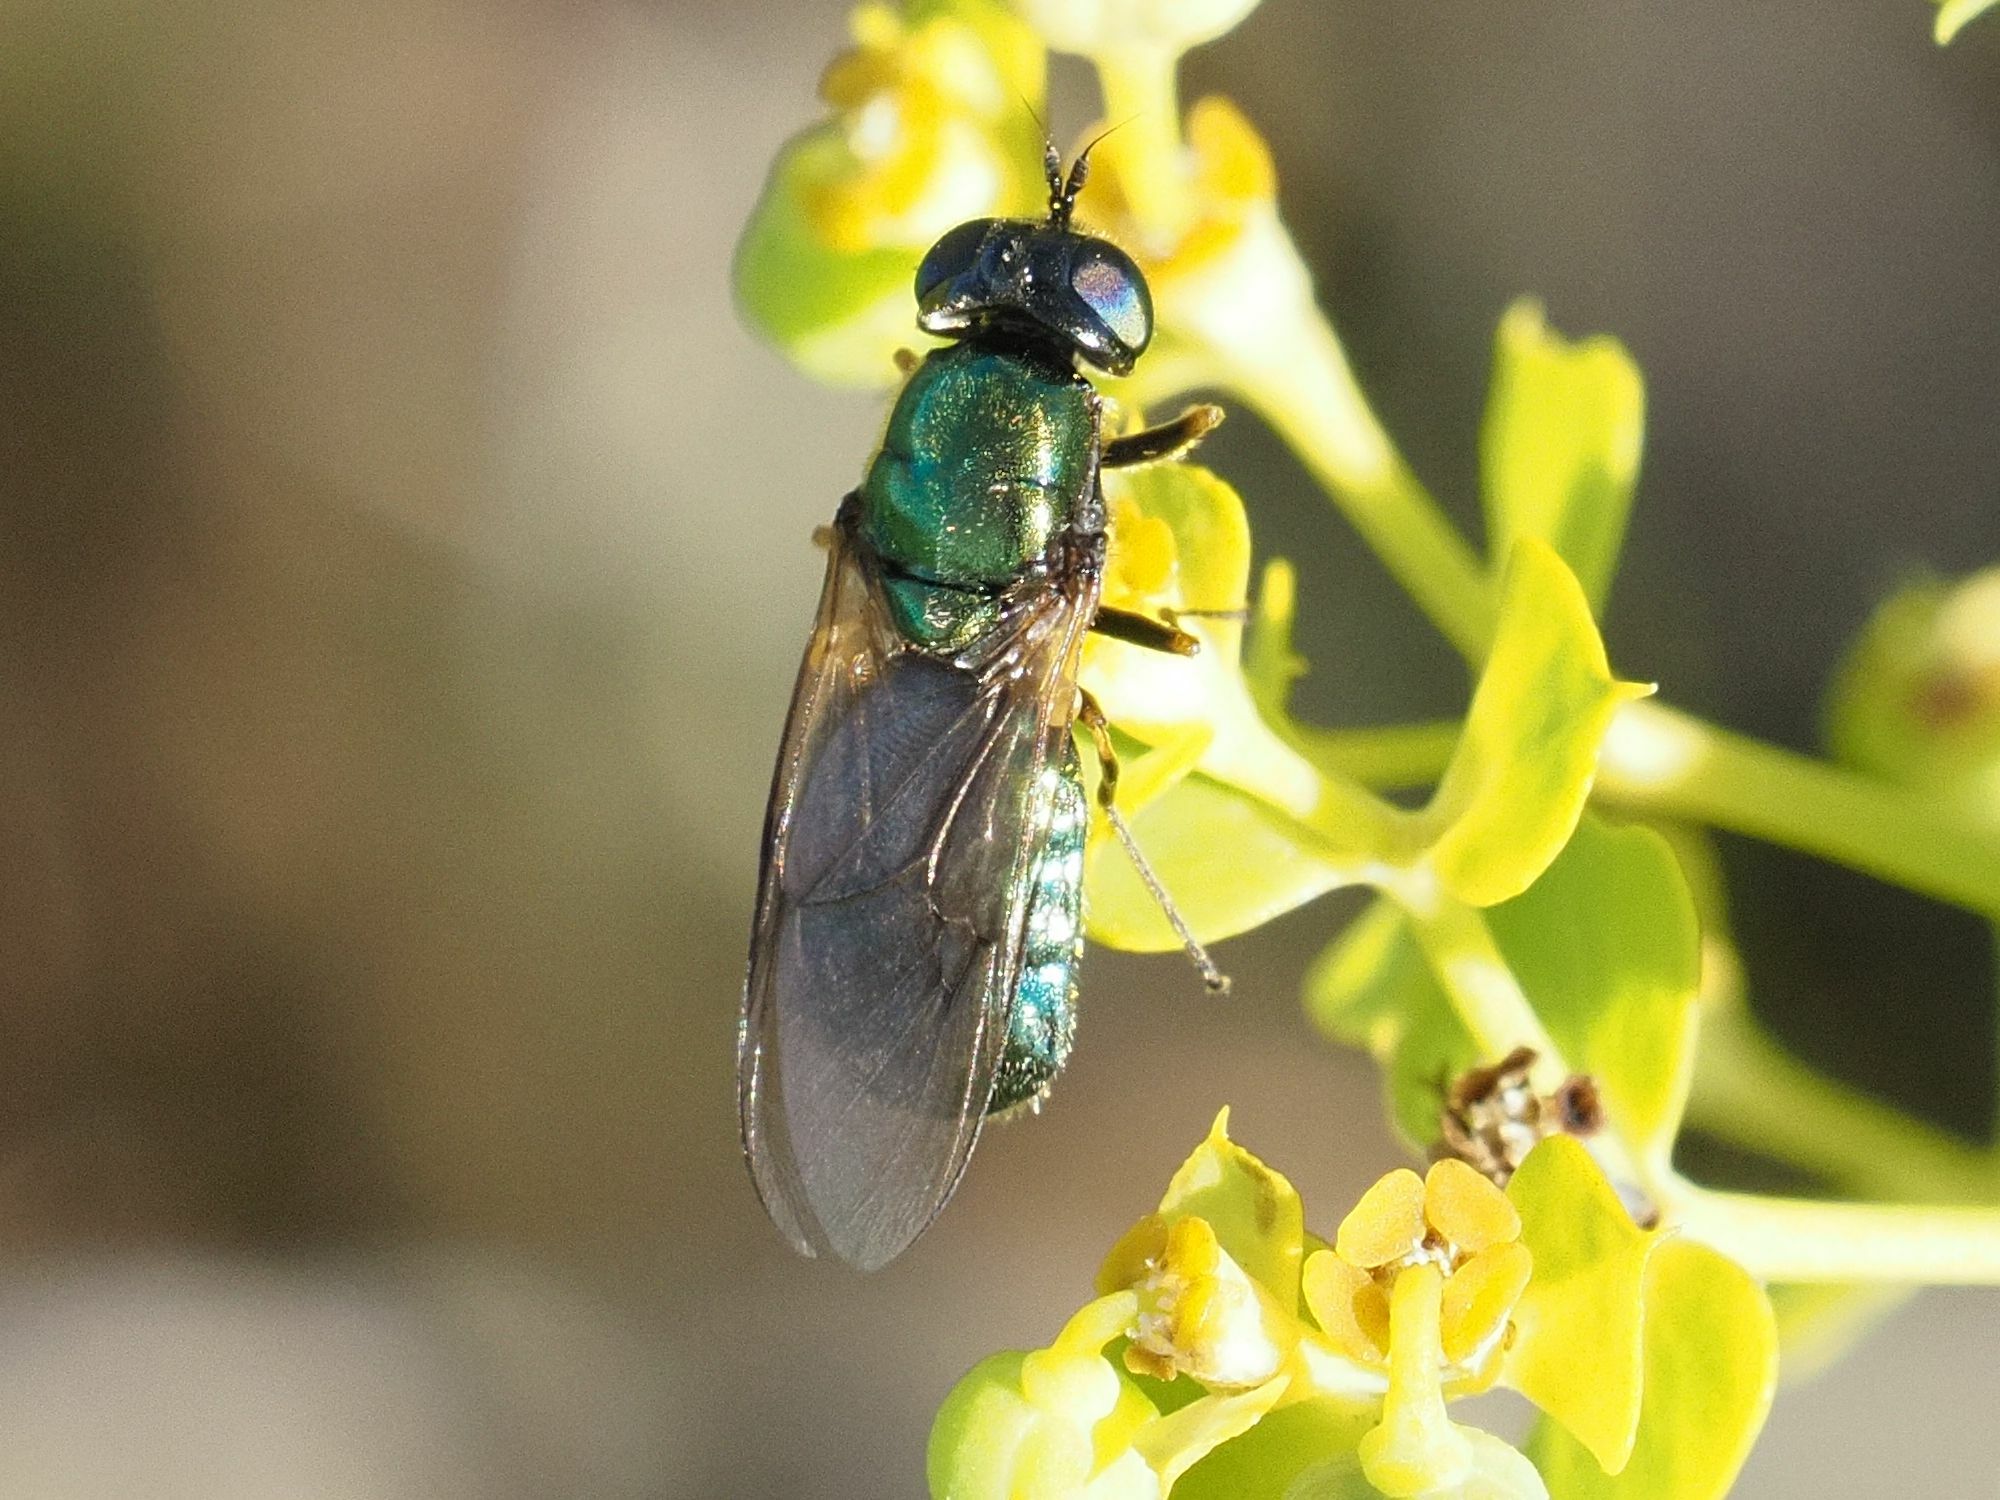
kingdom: Animalia
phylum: Arthropoda
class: Insecta
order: Diptera
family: Stratiomyidae
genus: Chloromyia
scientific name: Chloromyia formosa
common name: Soldier fly
